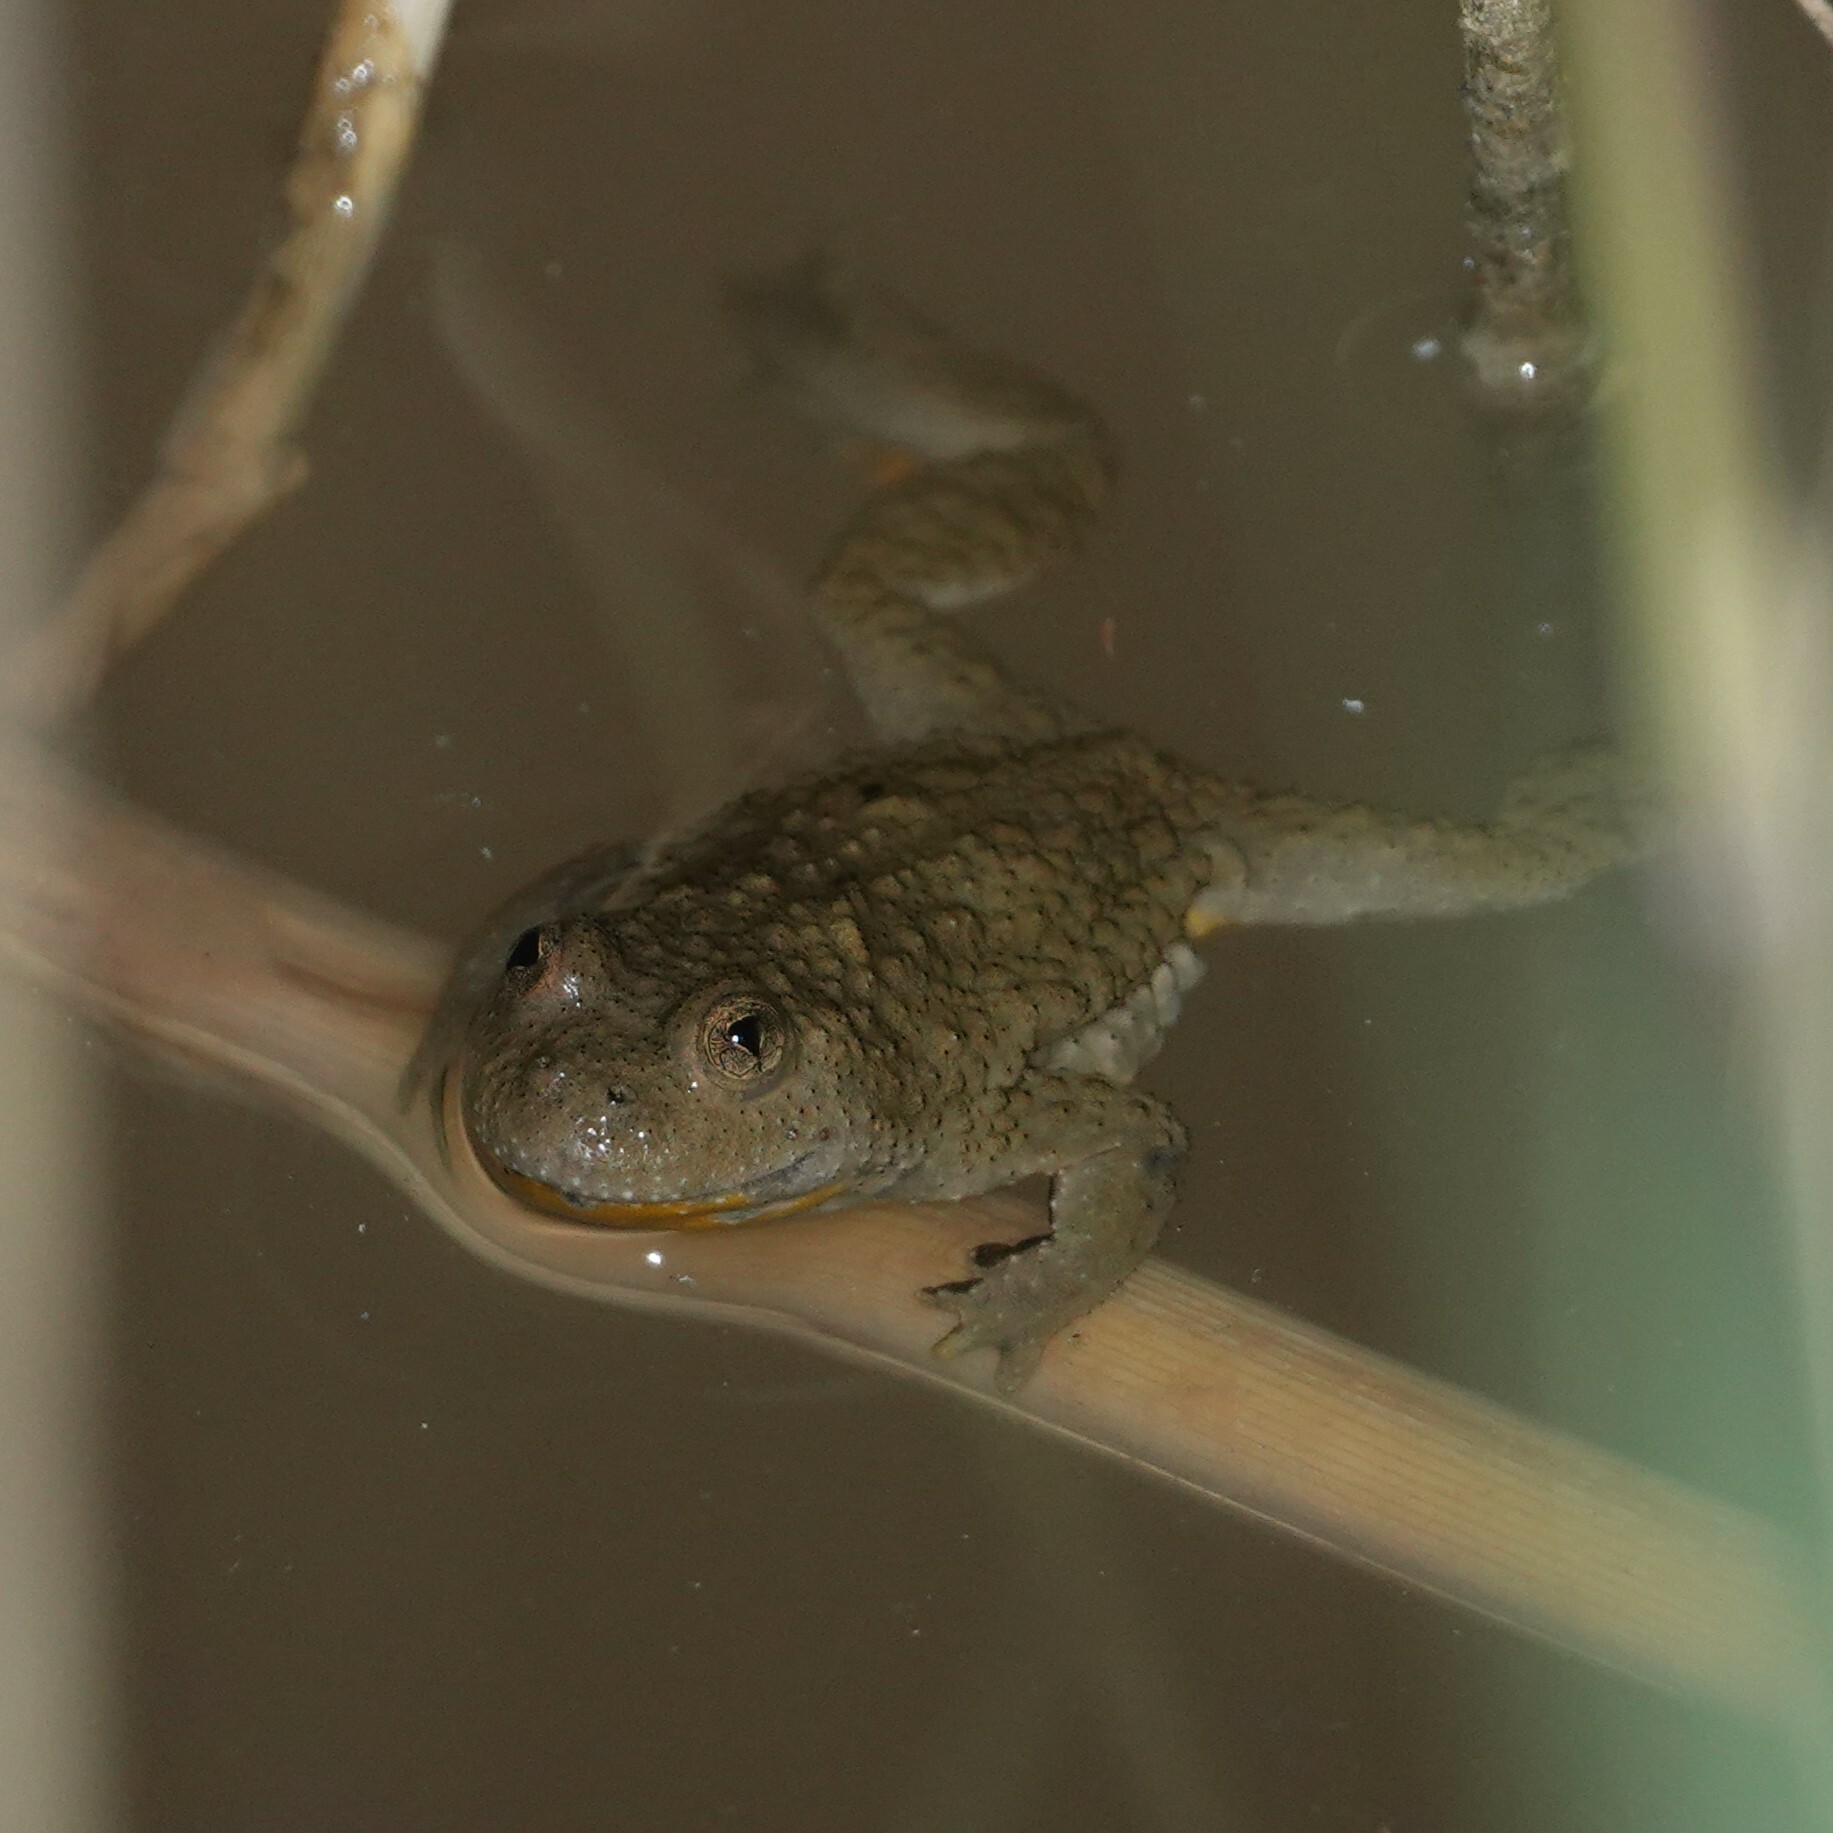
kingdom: Animalia
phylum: Chordata
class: Amphibia
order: Anura
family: Bombinatoridae
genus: Bombina
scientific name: Bombina variegata
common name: Yellow-bellied toad
